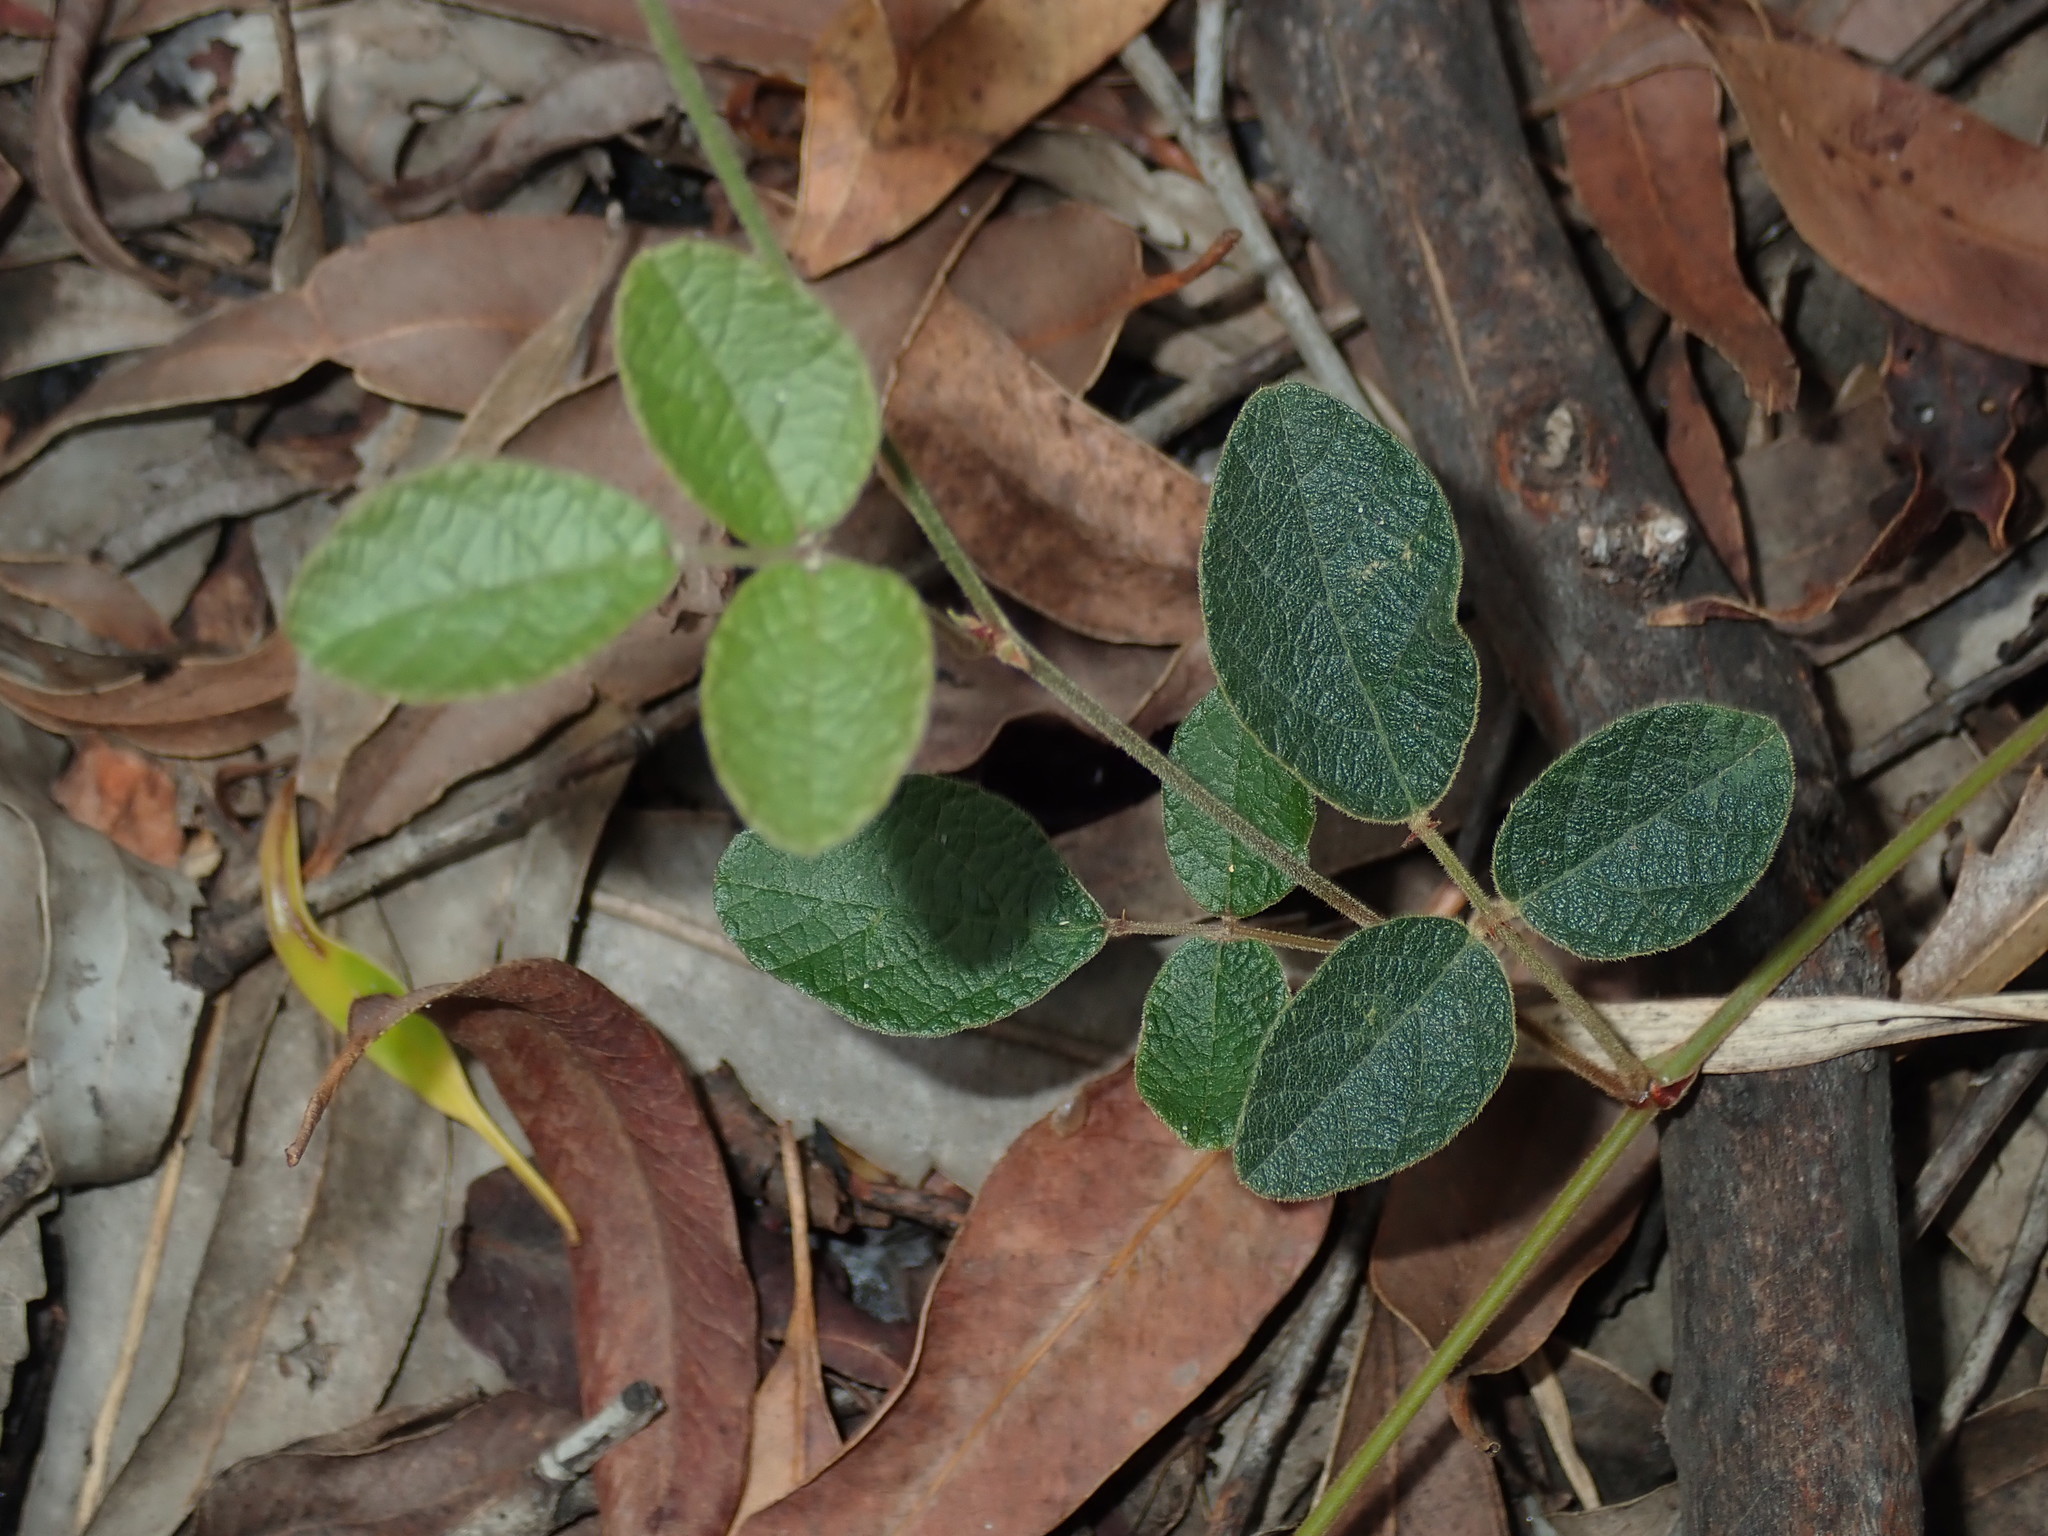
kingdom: Plantae
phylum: Tracheophyta
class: Magnoliopsida
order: Fabales
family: Fabaceae
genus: Maekawaea
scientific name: Maekawaea rhytidophylla
